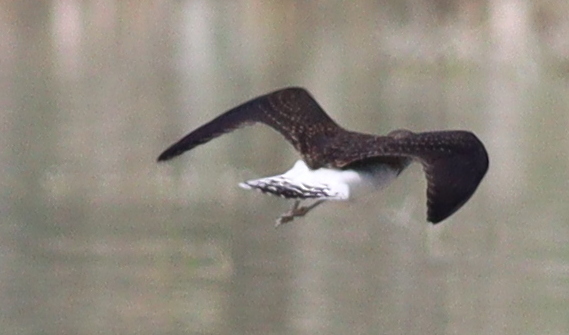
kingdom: Animalia
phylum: Chordata
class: Aves
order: Charadriiformes
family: Scolopacidae
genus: Tringa
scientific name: Tringa ochropus
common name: Green sandpiper
